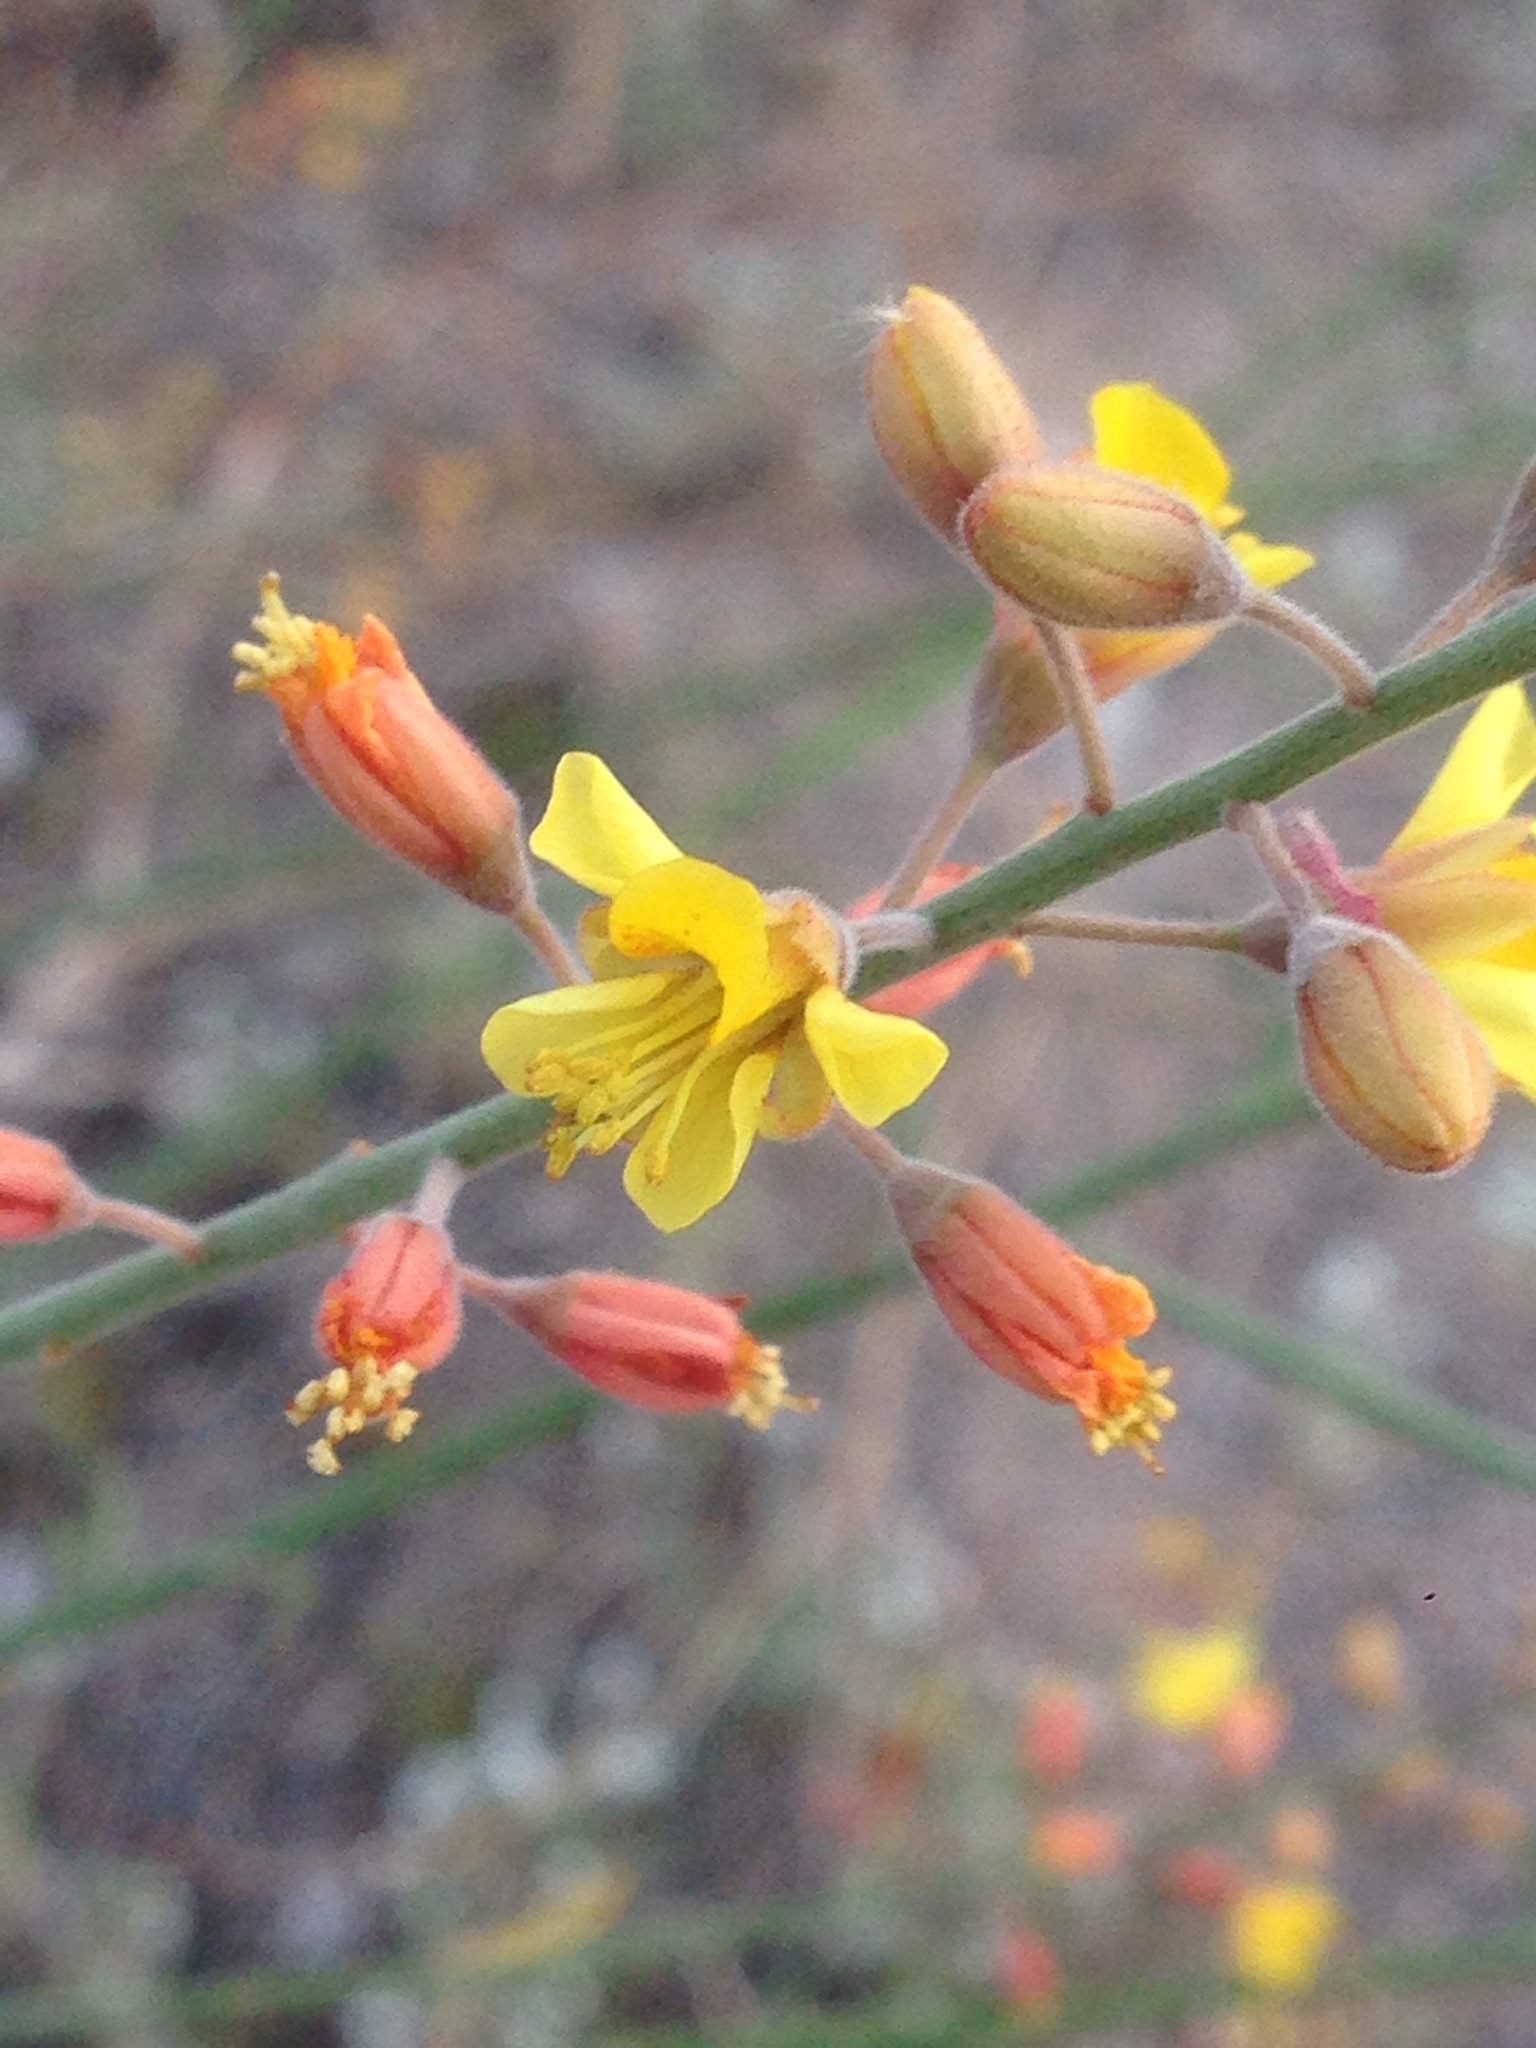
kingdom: Plantae
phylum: Tracheophyta
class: Magnoliopsida
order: Fabales
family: Fabaceae
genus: Hoffmannseggia
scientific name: Hoffmannseggia microphylla
